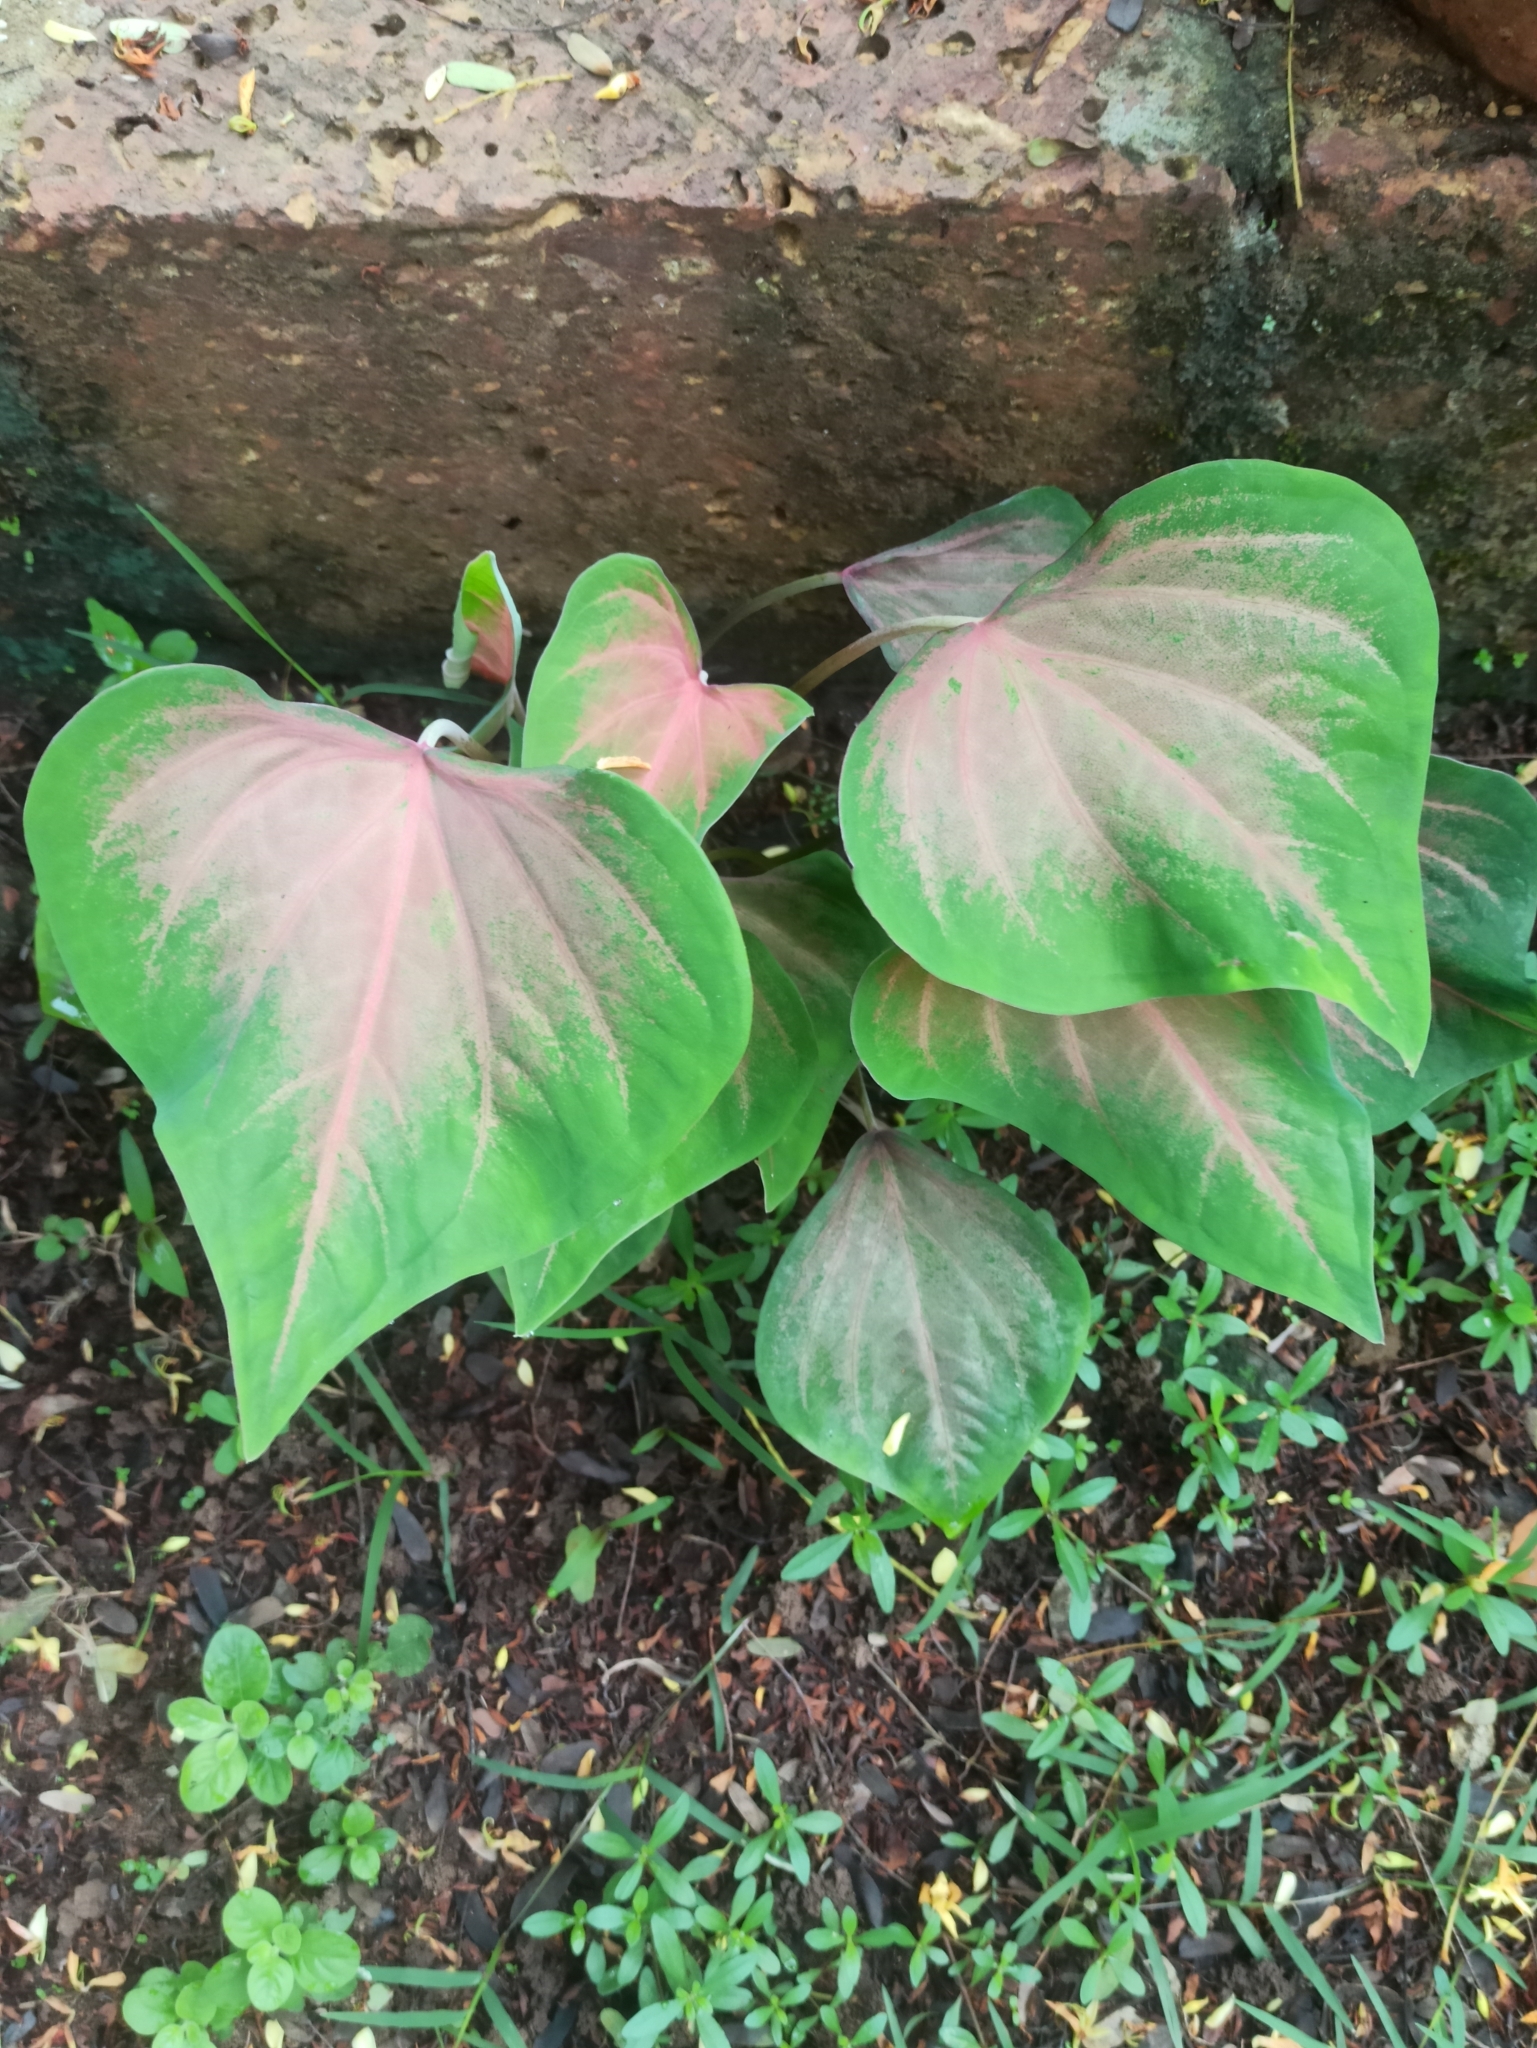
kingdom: Plantae
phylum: Tracheophyta
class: Liliopsida
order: Alismatales
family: Araceae
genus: Caladium
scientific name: Caladium bicolor
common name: Artist's pallet
